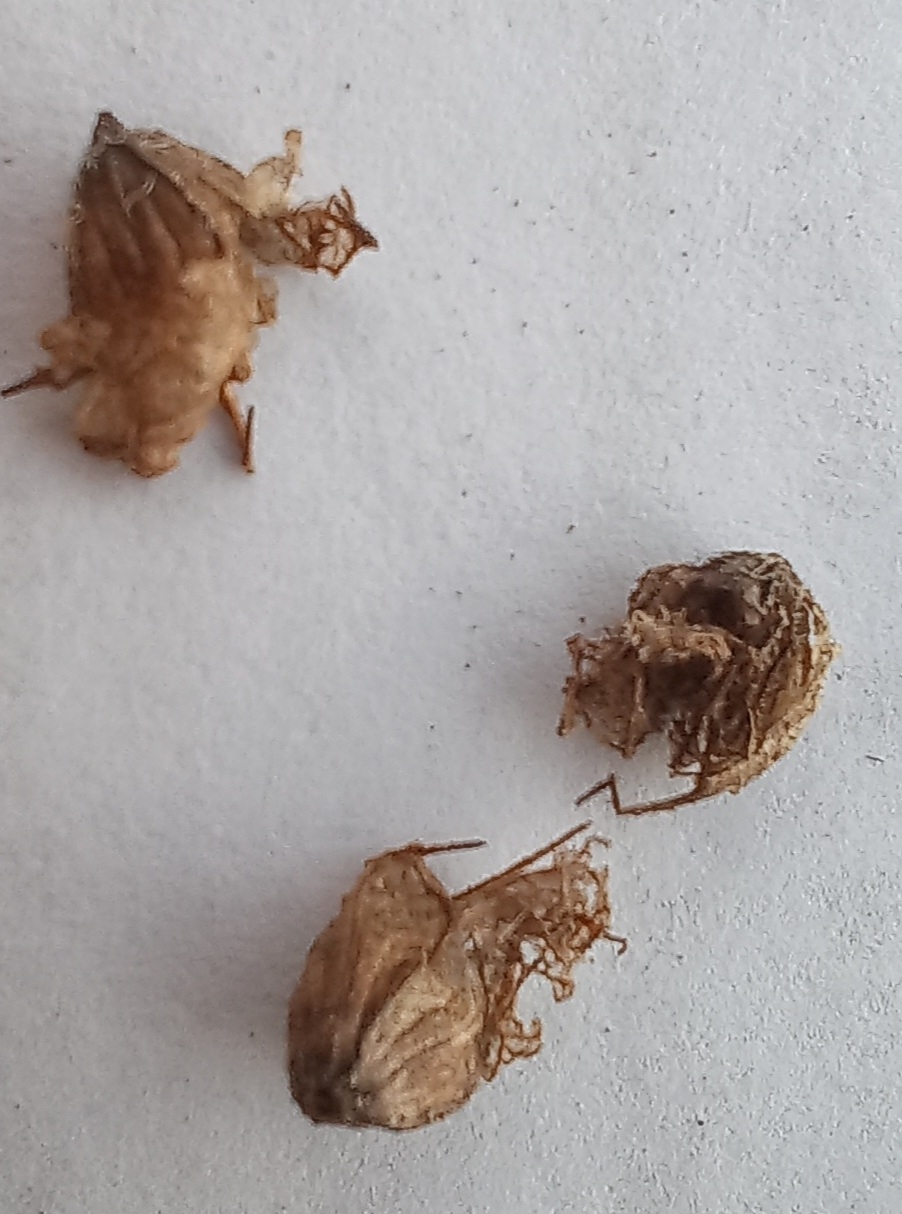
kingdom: Plantae
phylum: Tracheophyta
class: Magnoliopsida
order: Lamiales
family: Lamiaceae
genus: Syncolostemon
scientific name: Syncolostemon bracteosus
